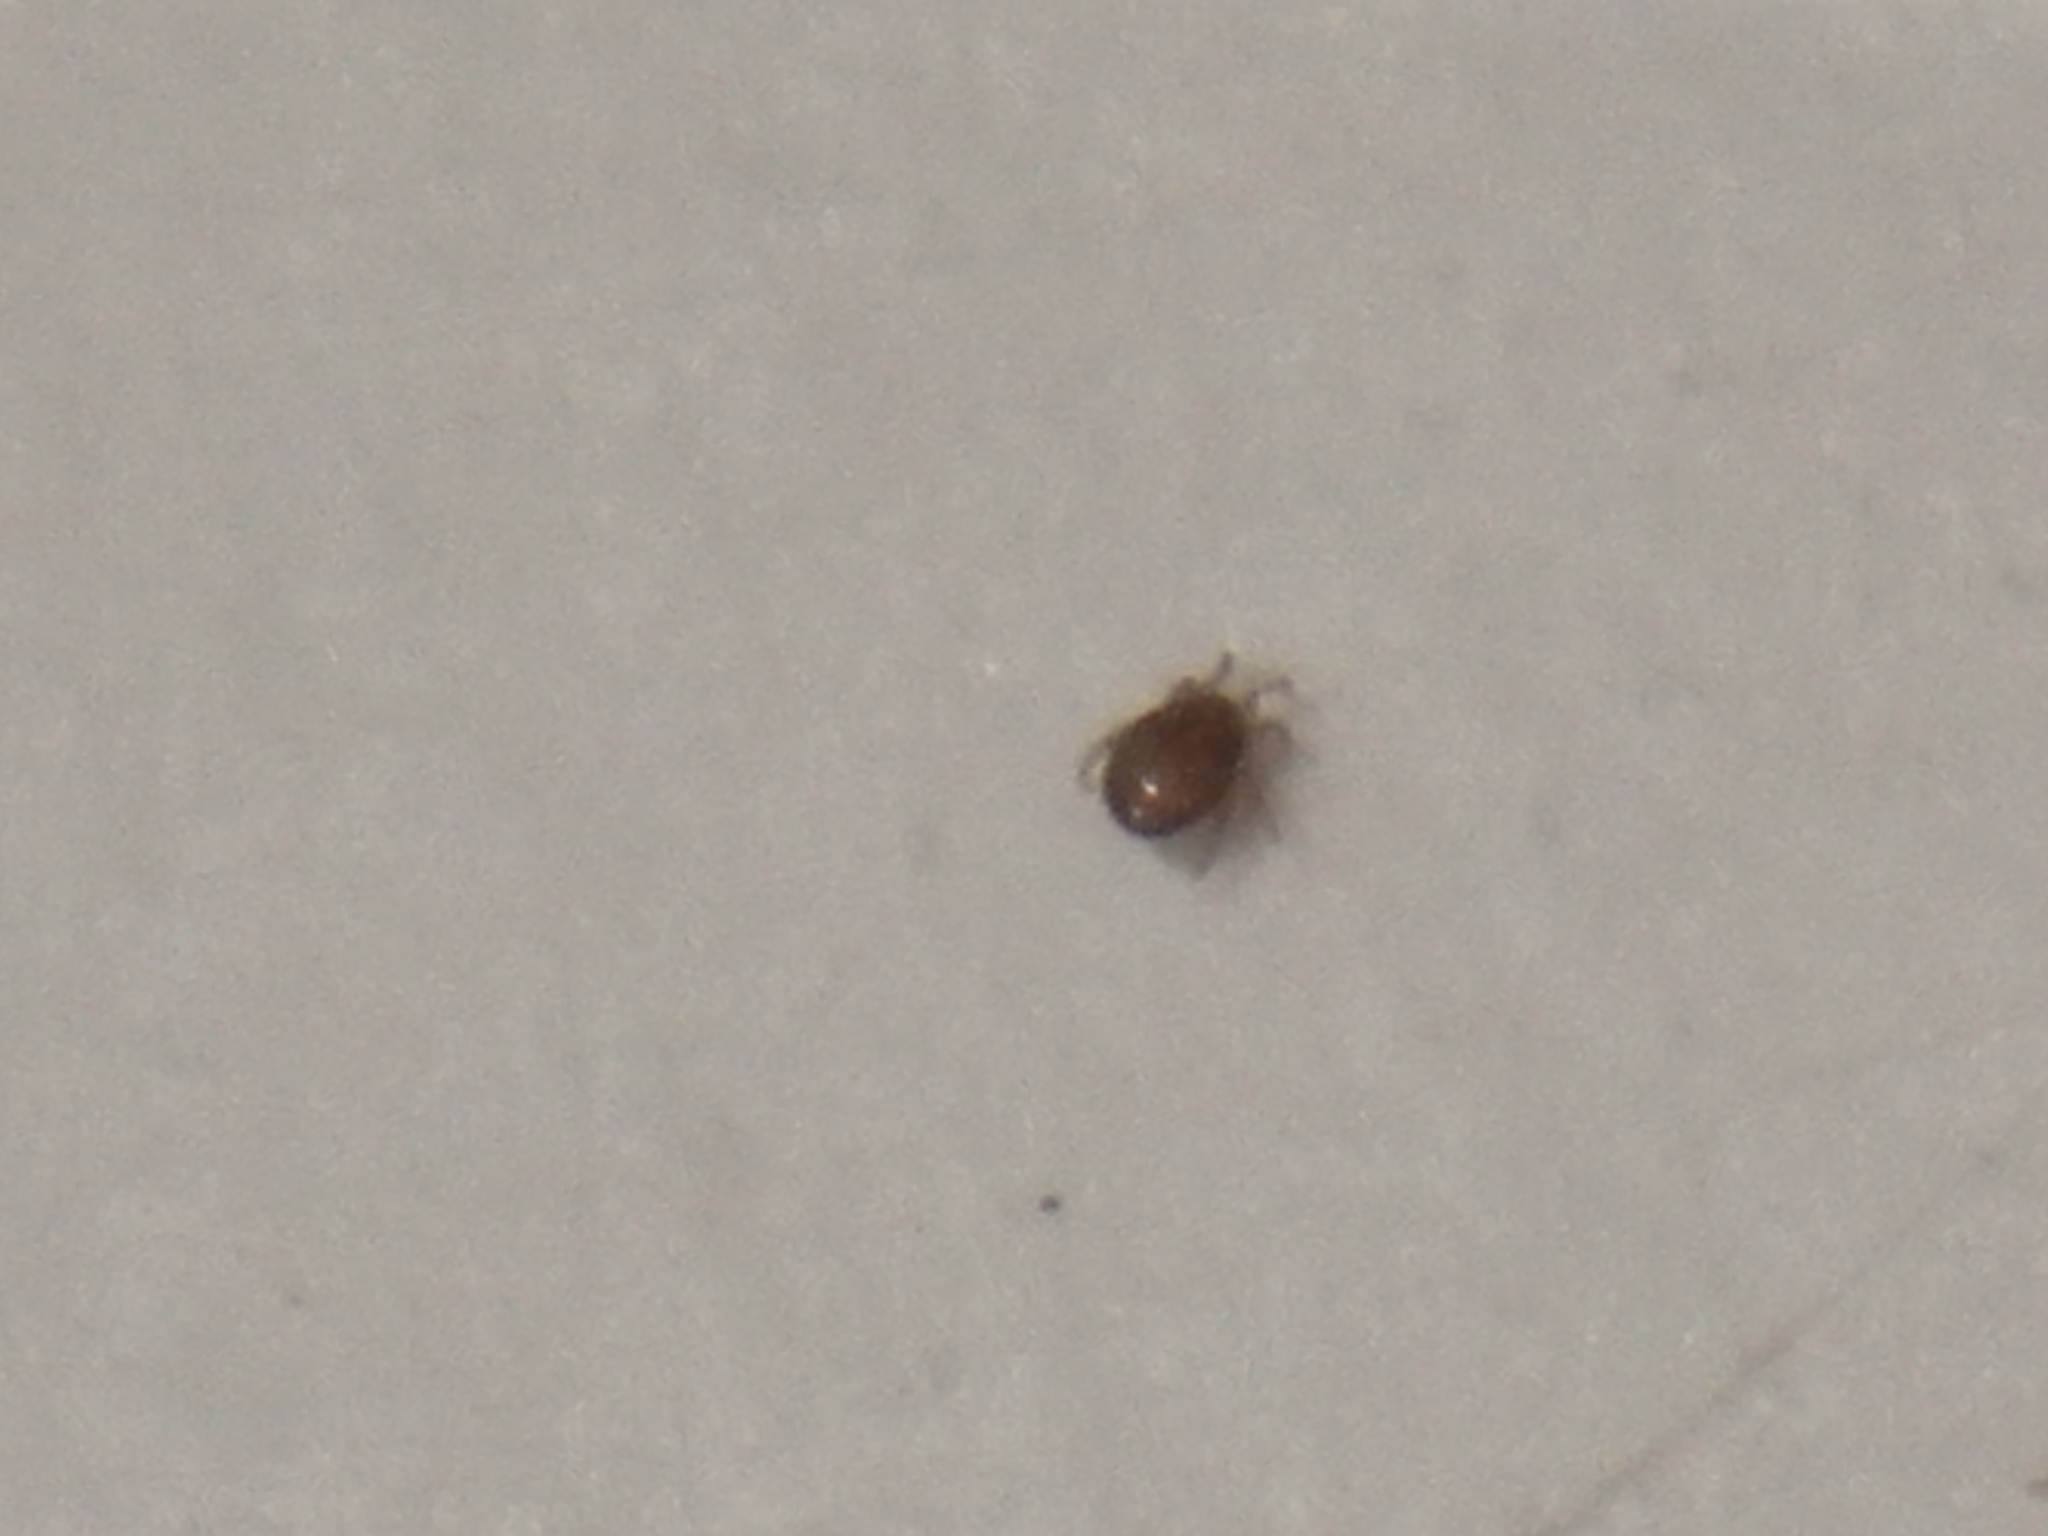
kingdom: Animalia
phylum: Arthropoda
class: Arachnida
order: Sarcoptiformes
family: Hydrozetidae
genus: Hydrozetes
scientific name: Hydrozetes
